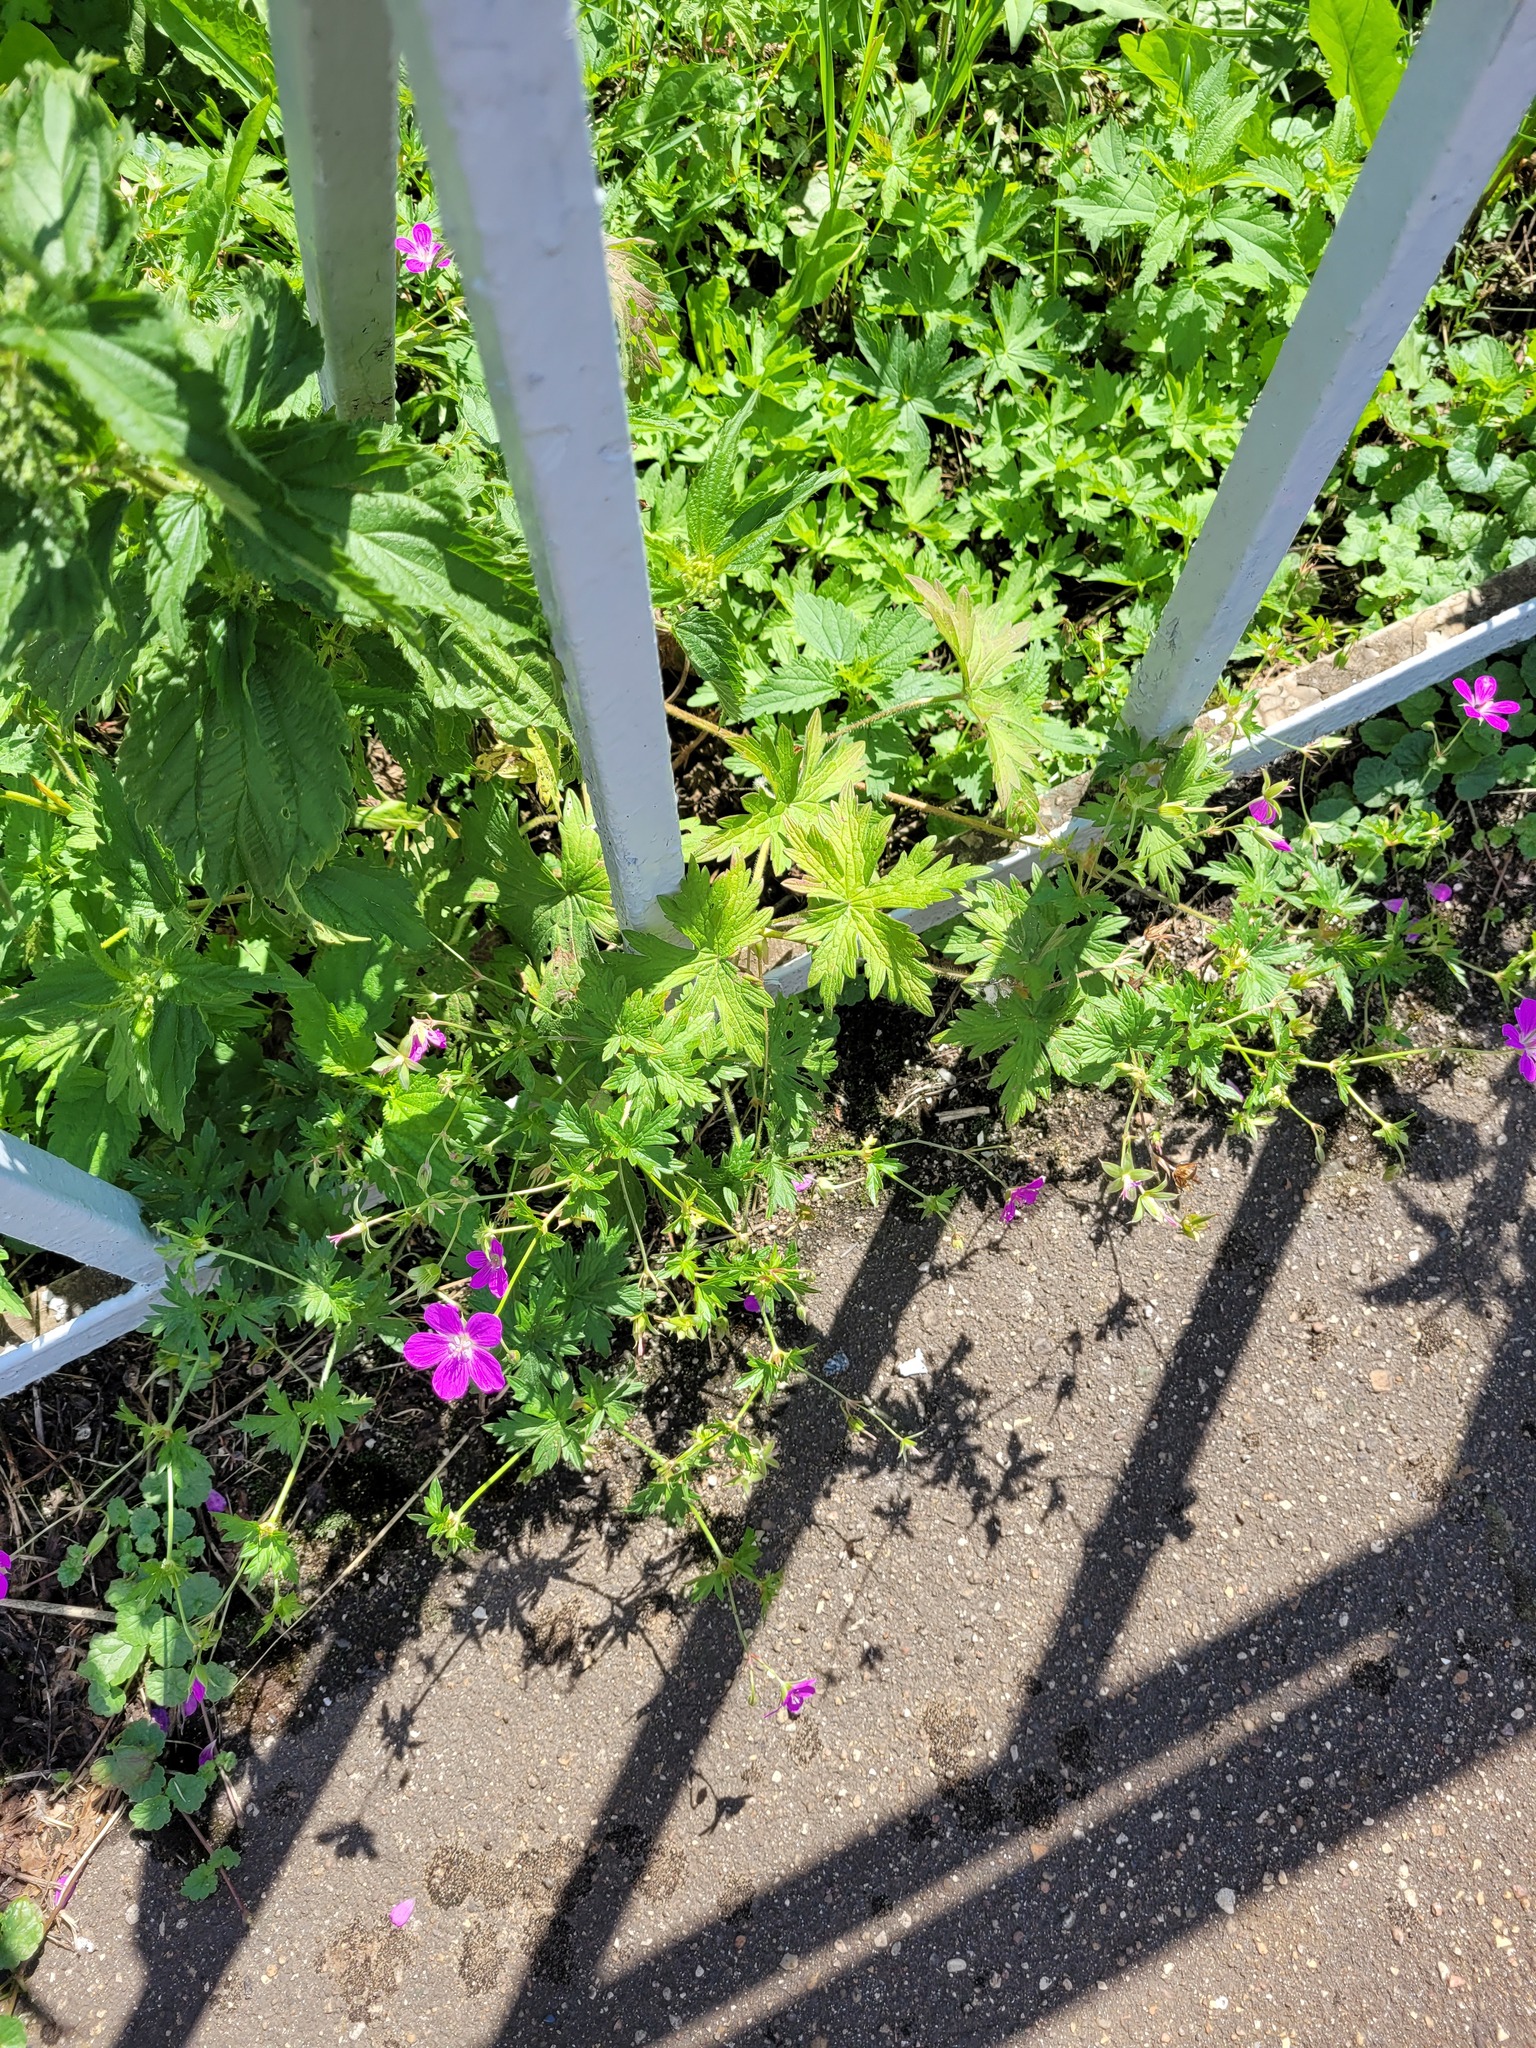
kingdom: Plantae
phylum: Tracheophyta
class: Magnoliopsida
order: Geraniales
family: Geraniaceae
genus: Geranium
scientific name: Geranium palustre
